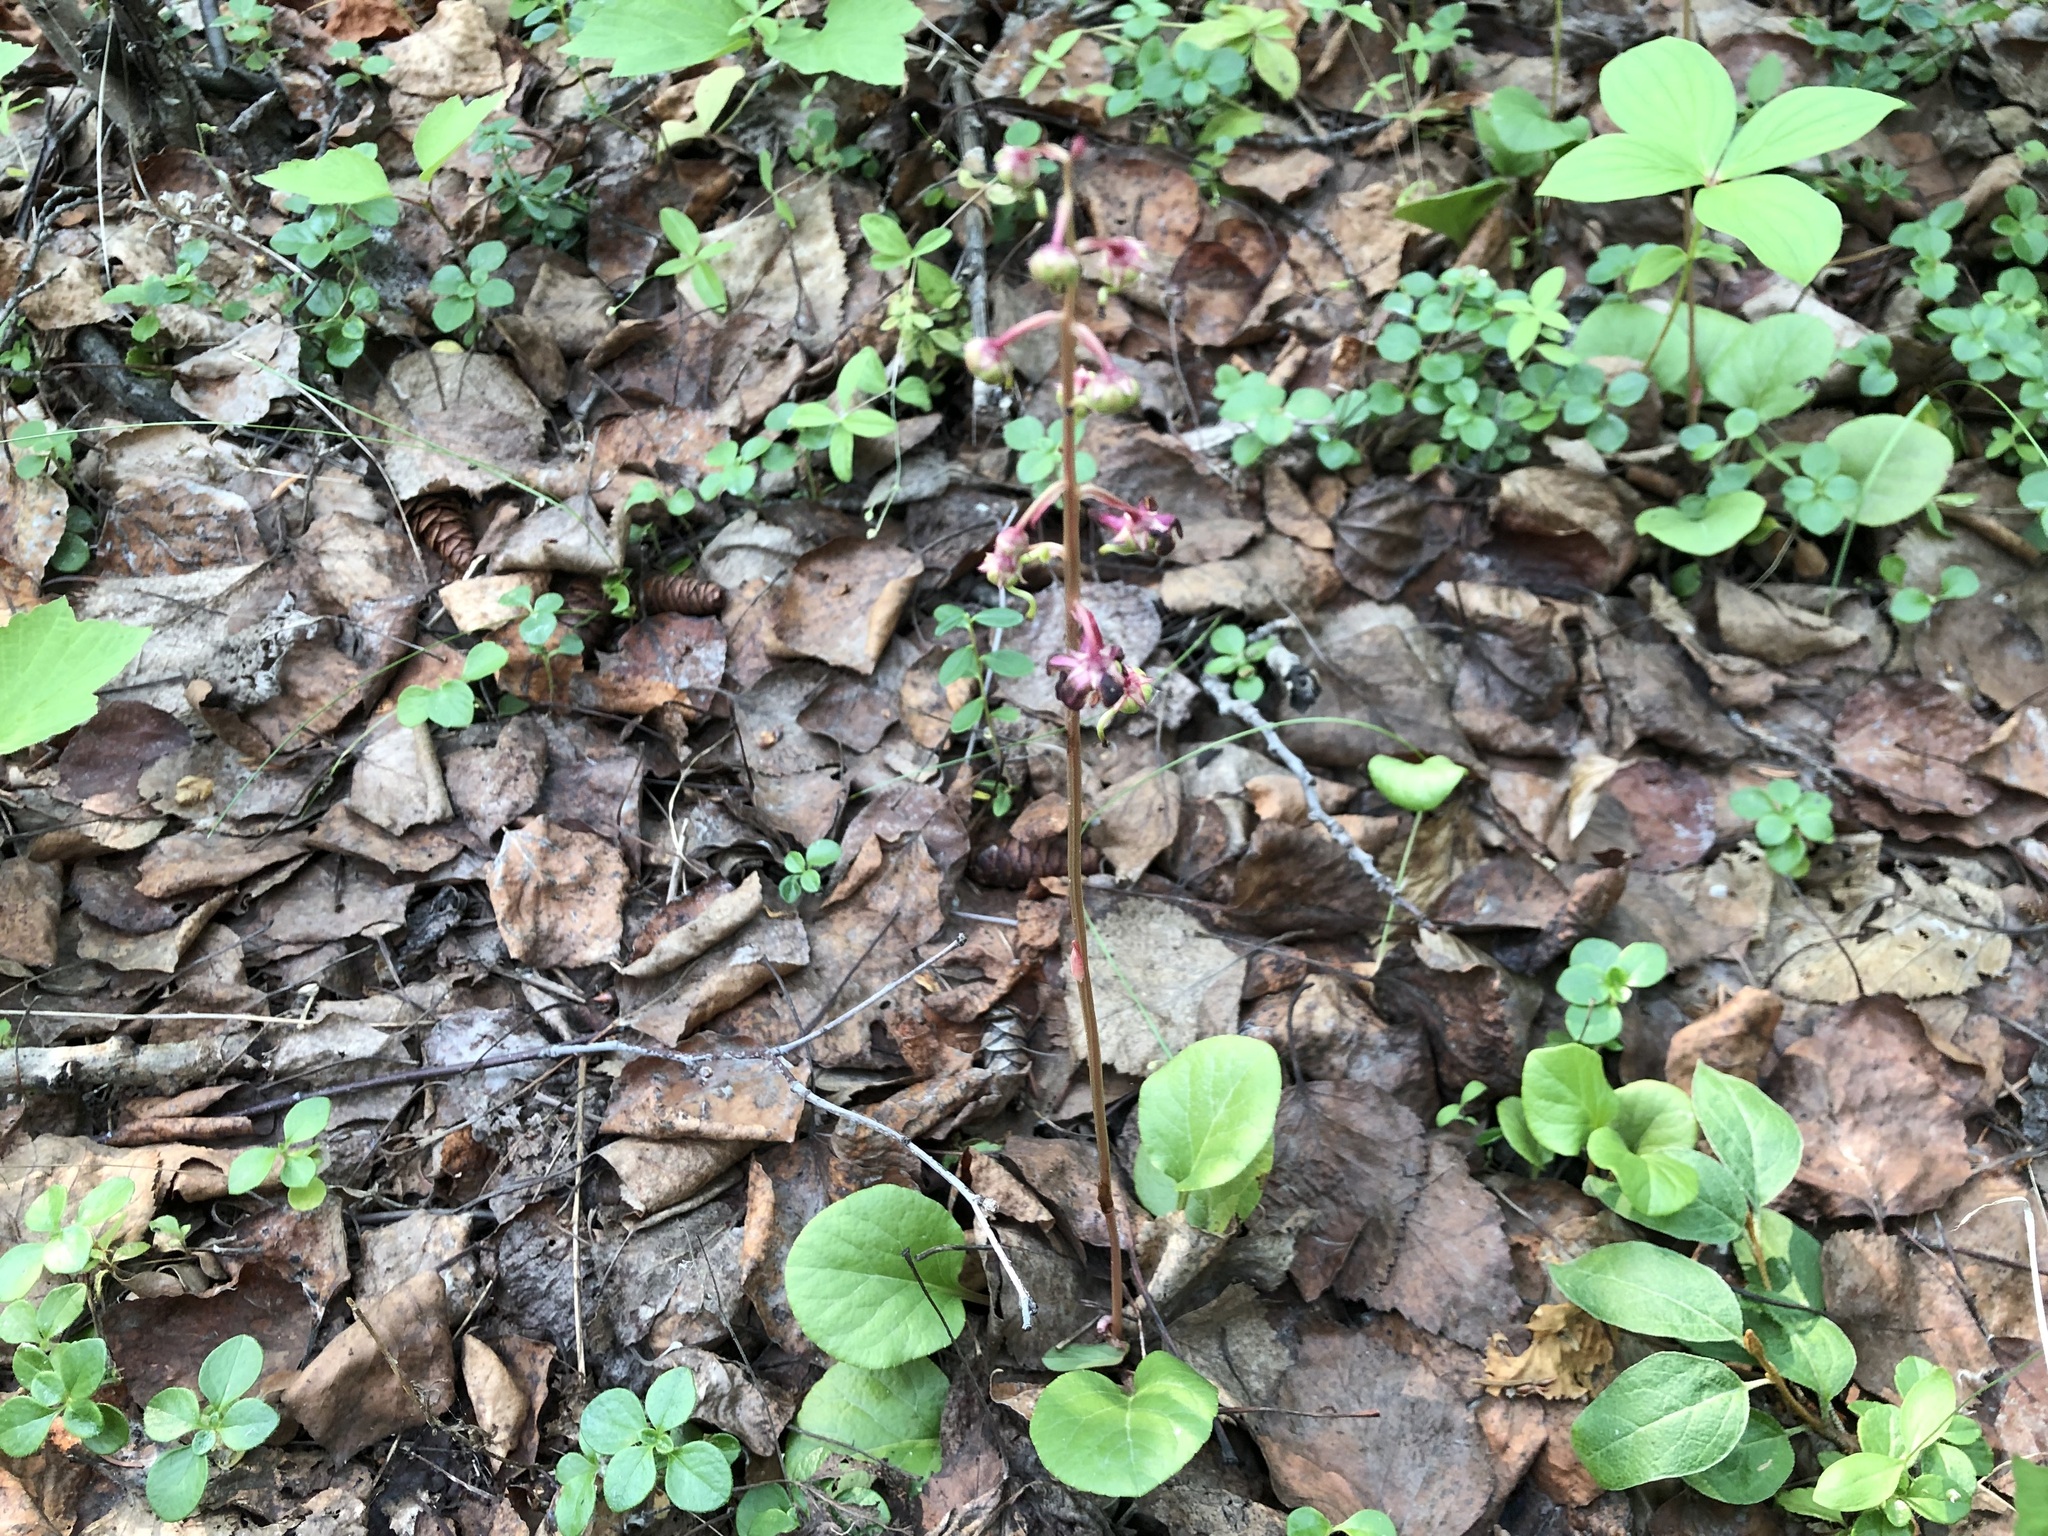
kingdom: Plantae
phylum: Tracheophyta
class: Magnoliopsida
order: Ericales
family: Ericaceae
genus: Pyrola
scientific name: Pyrola asarifolia
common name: Bog wintergreen
